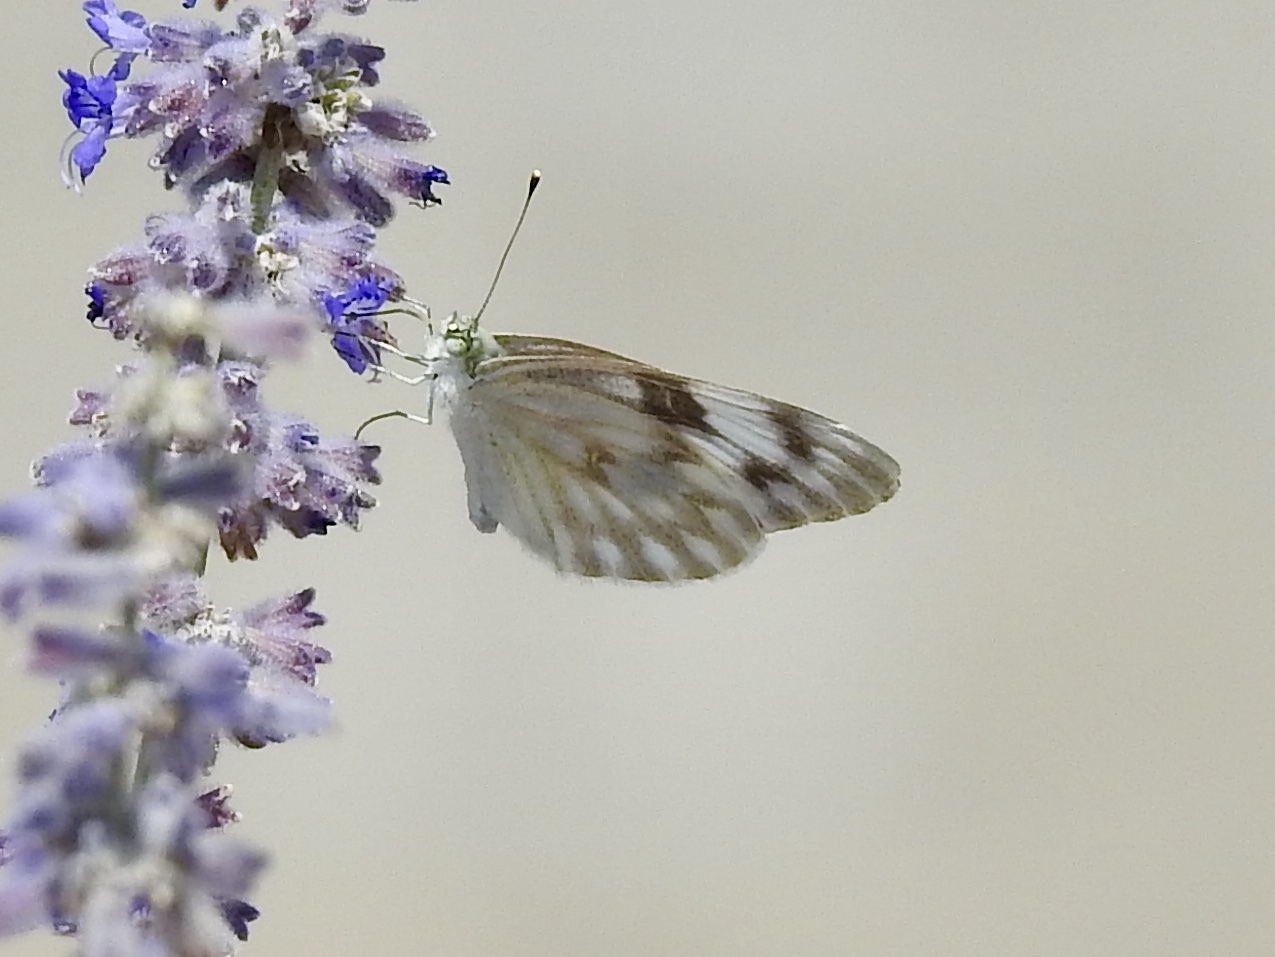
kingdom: Animalia
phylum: Arthropoda
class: Insecta
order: Lepidoptera
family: Pieridae
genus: Pontia
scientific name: Pontia protodice
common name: Checkered white
